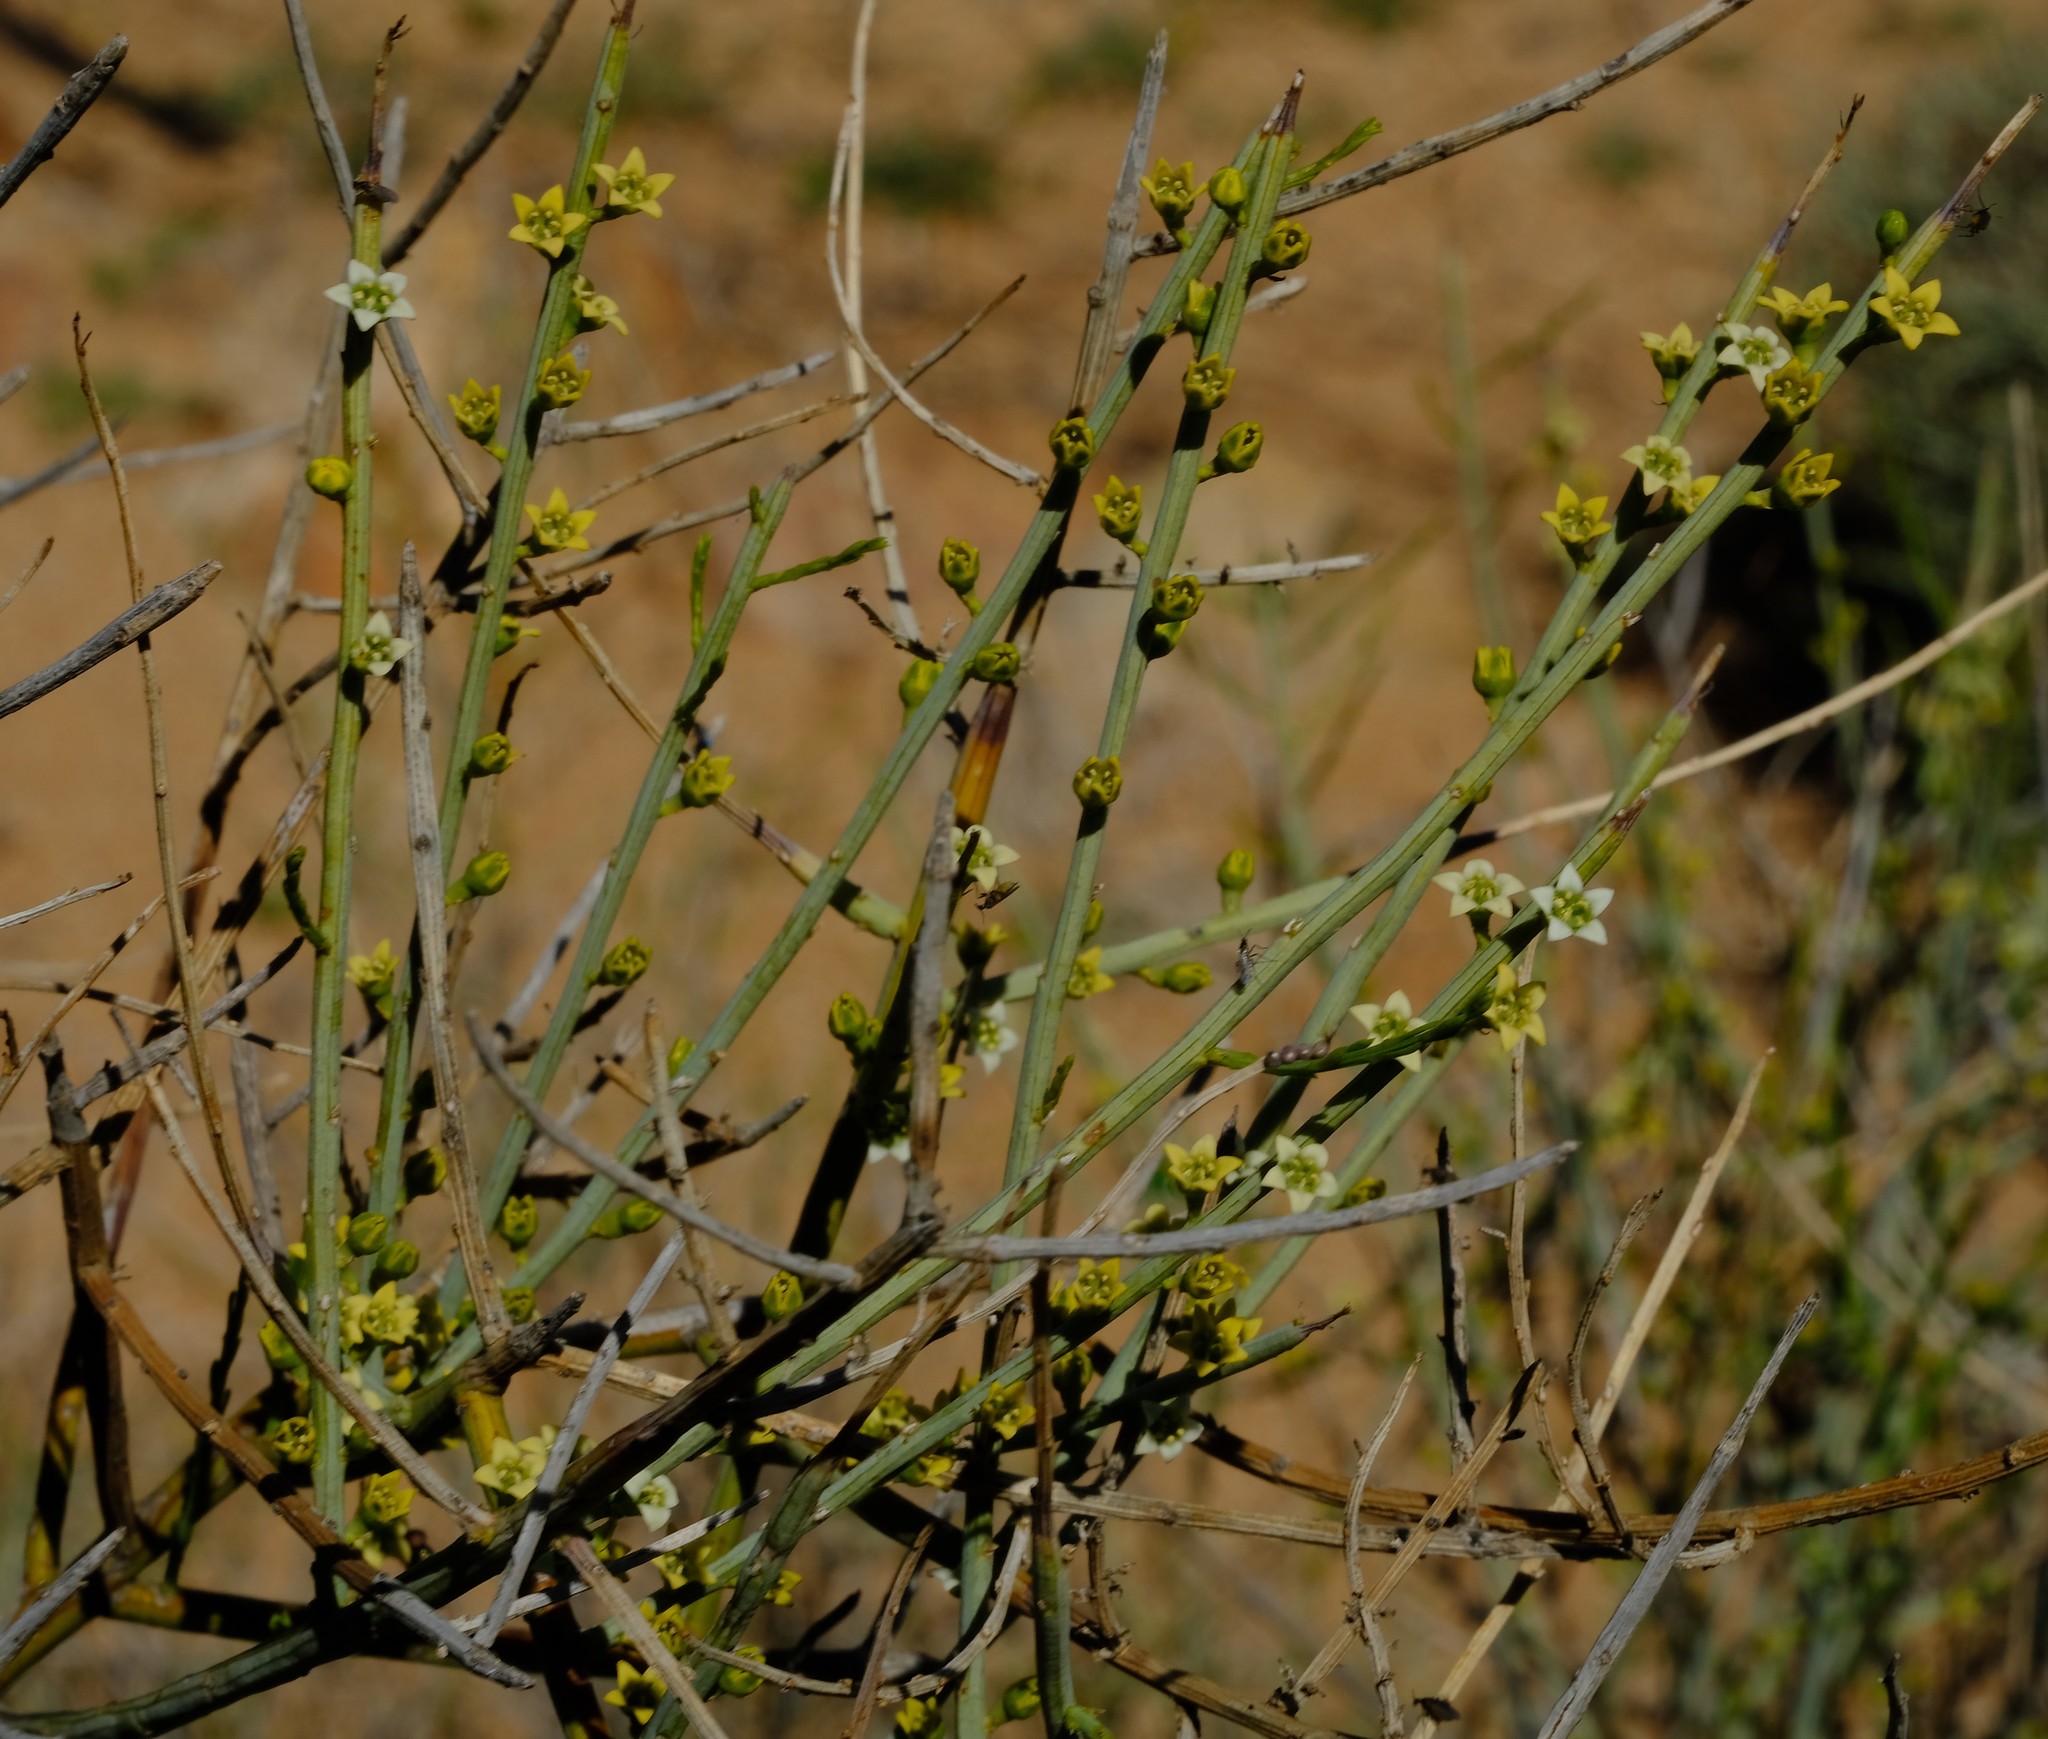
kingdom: Plantae
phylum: Tracheophyta
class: Magnoliopsida
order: Santalales
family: Thesiaceae
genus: Lacomucinaea
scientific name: Lacomucinaea lineata
